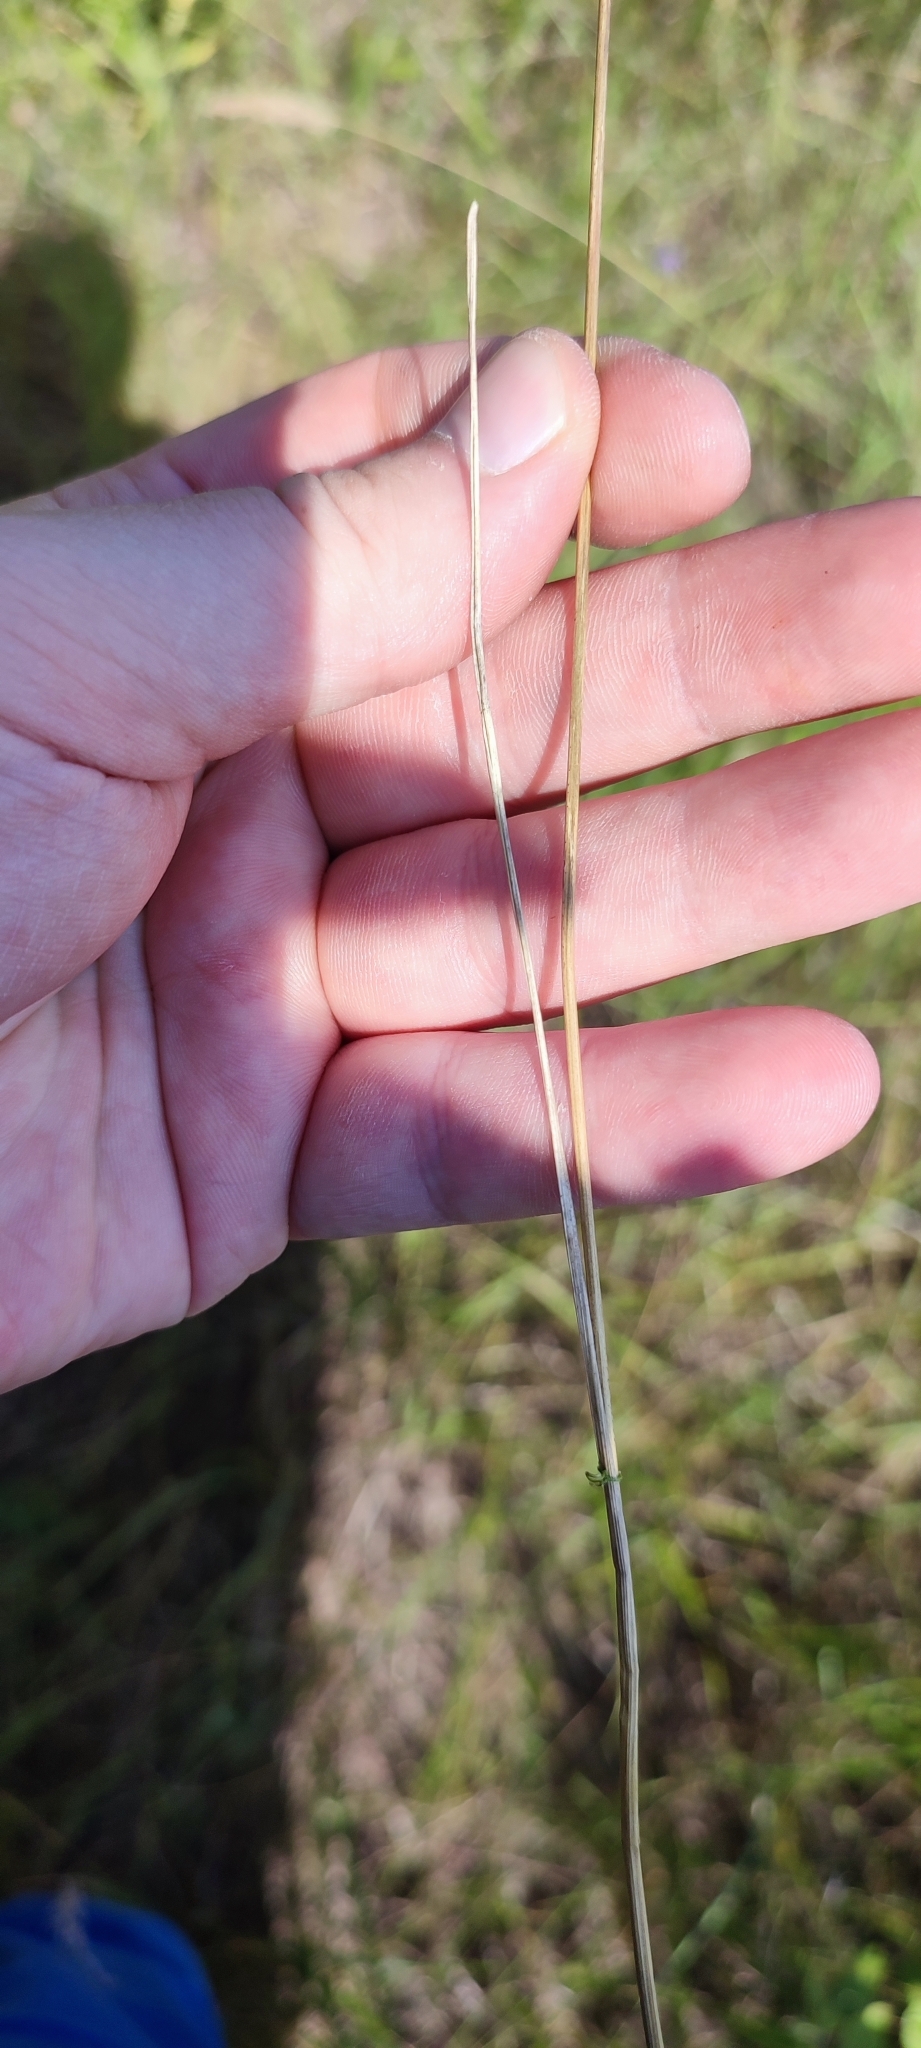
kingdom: Plantae
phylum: Tracheophyta
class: Liliopsida
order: Poales
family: Poaceae
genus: Poa
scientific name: Poa angustifolia
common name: Narrow-leaved meadow-grass
